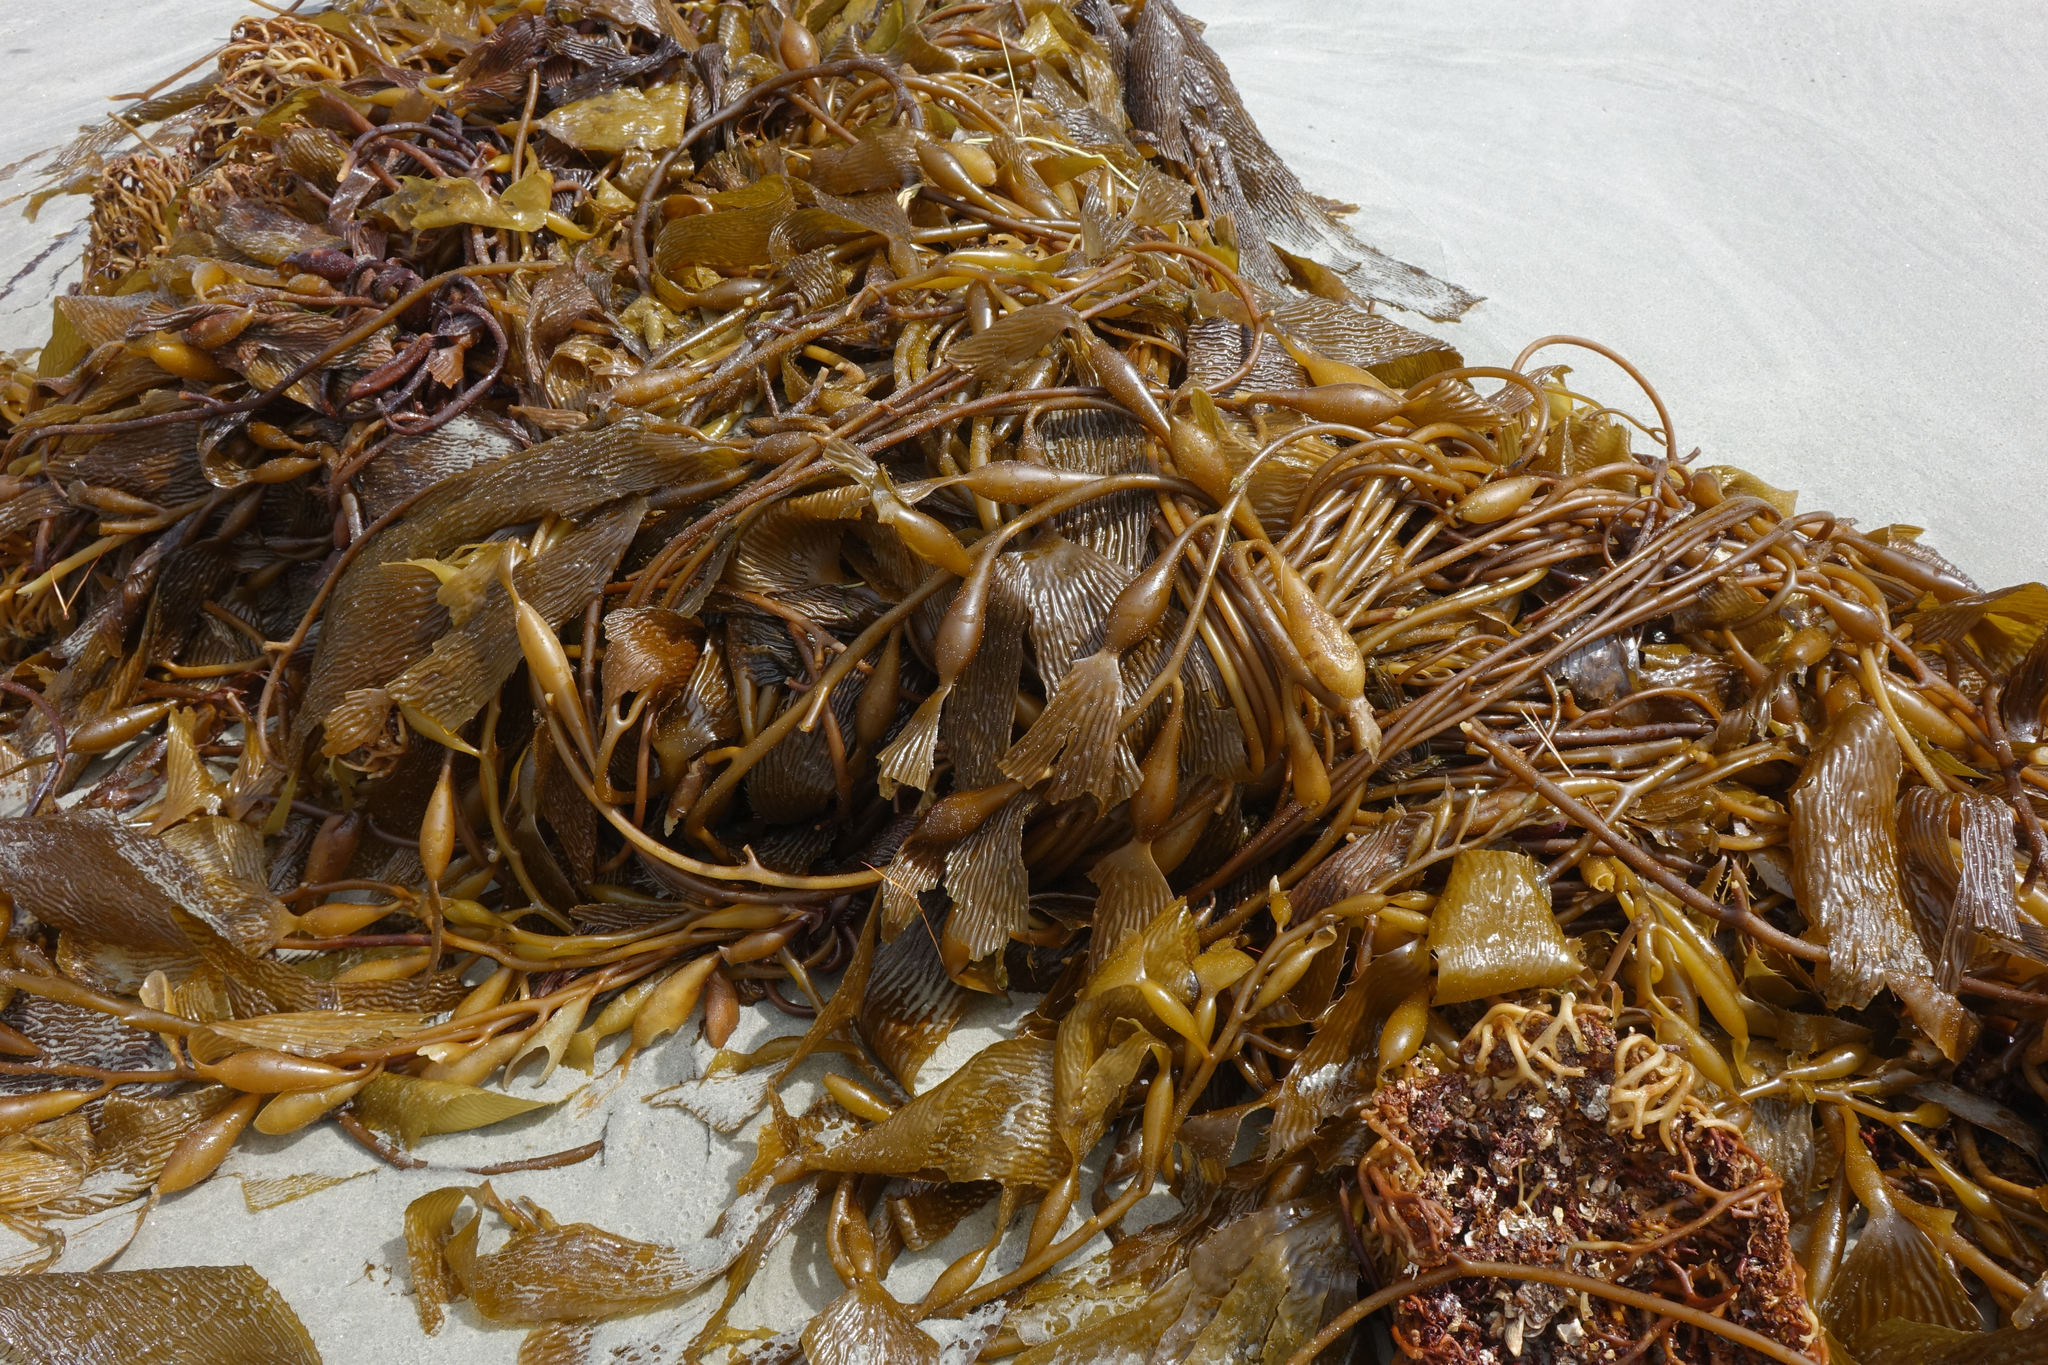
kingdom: Chromista
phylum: Ochrophyta
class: Phaeophyceae
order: Laminariales
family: Laminariaceae
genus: Macrocystis
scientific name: Macrocystis pyrifera
